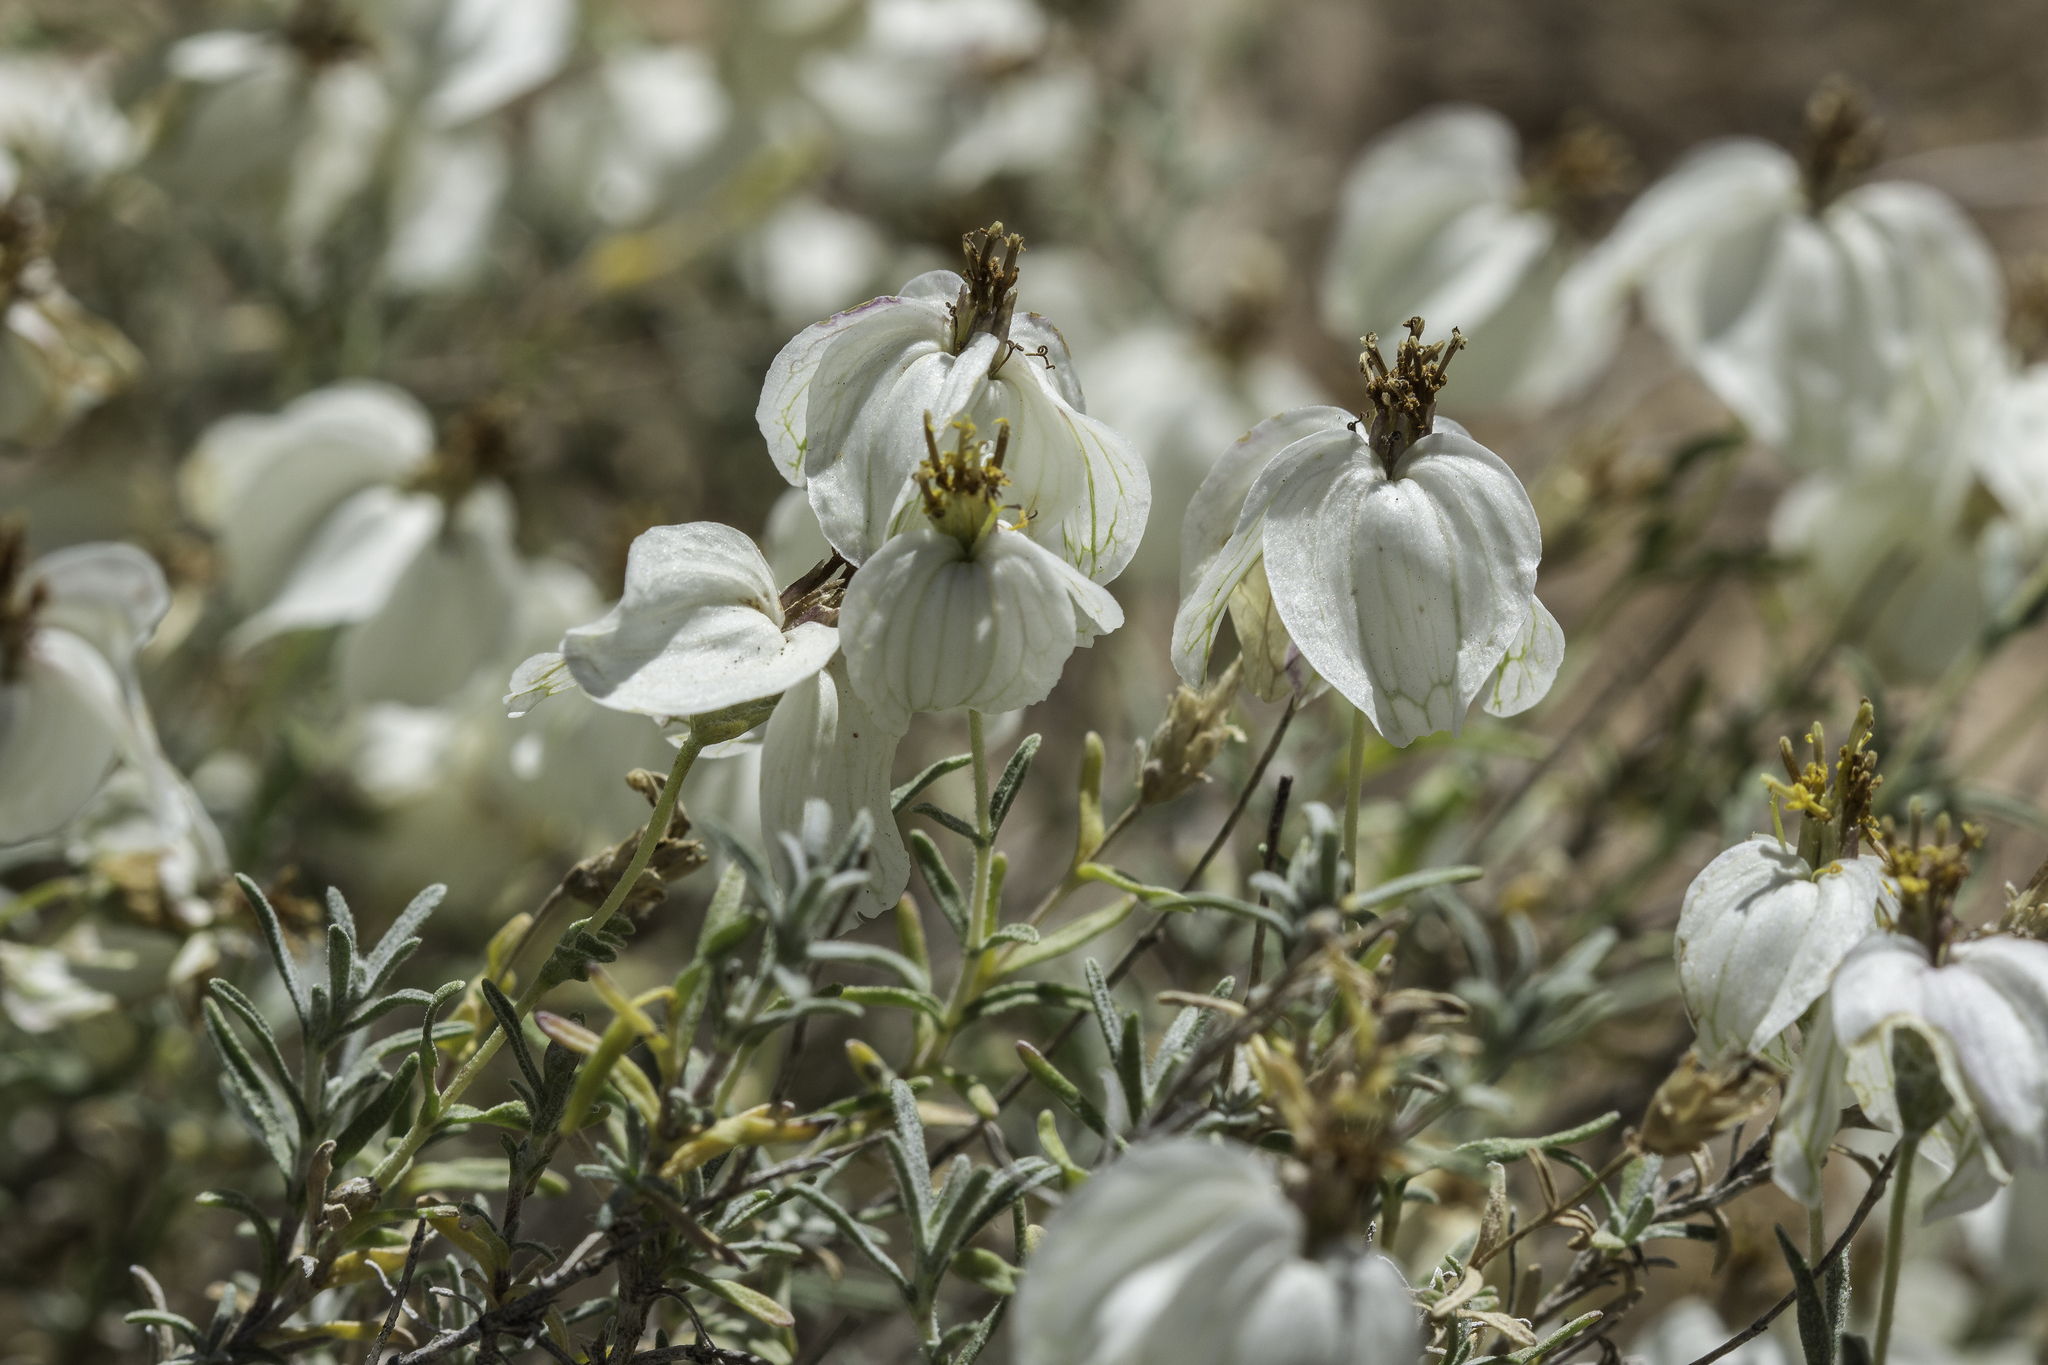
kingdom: Plantae
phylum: Tracheophyta
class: Magnoliopsida
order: Asterales
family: Asteraceae
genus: Zinnia
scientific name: Zinnia acerosa
